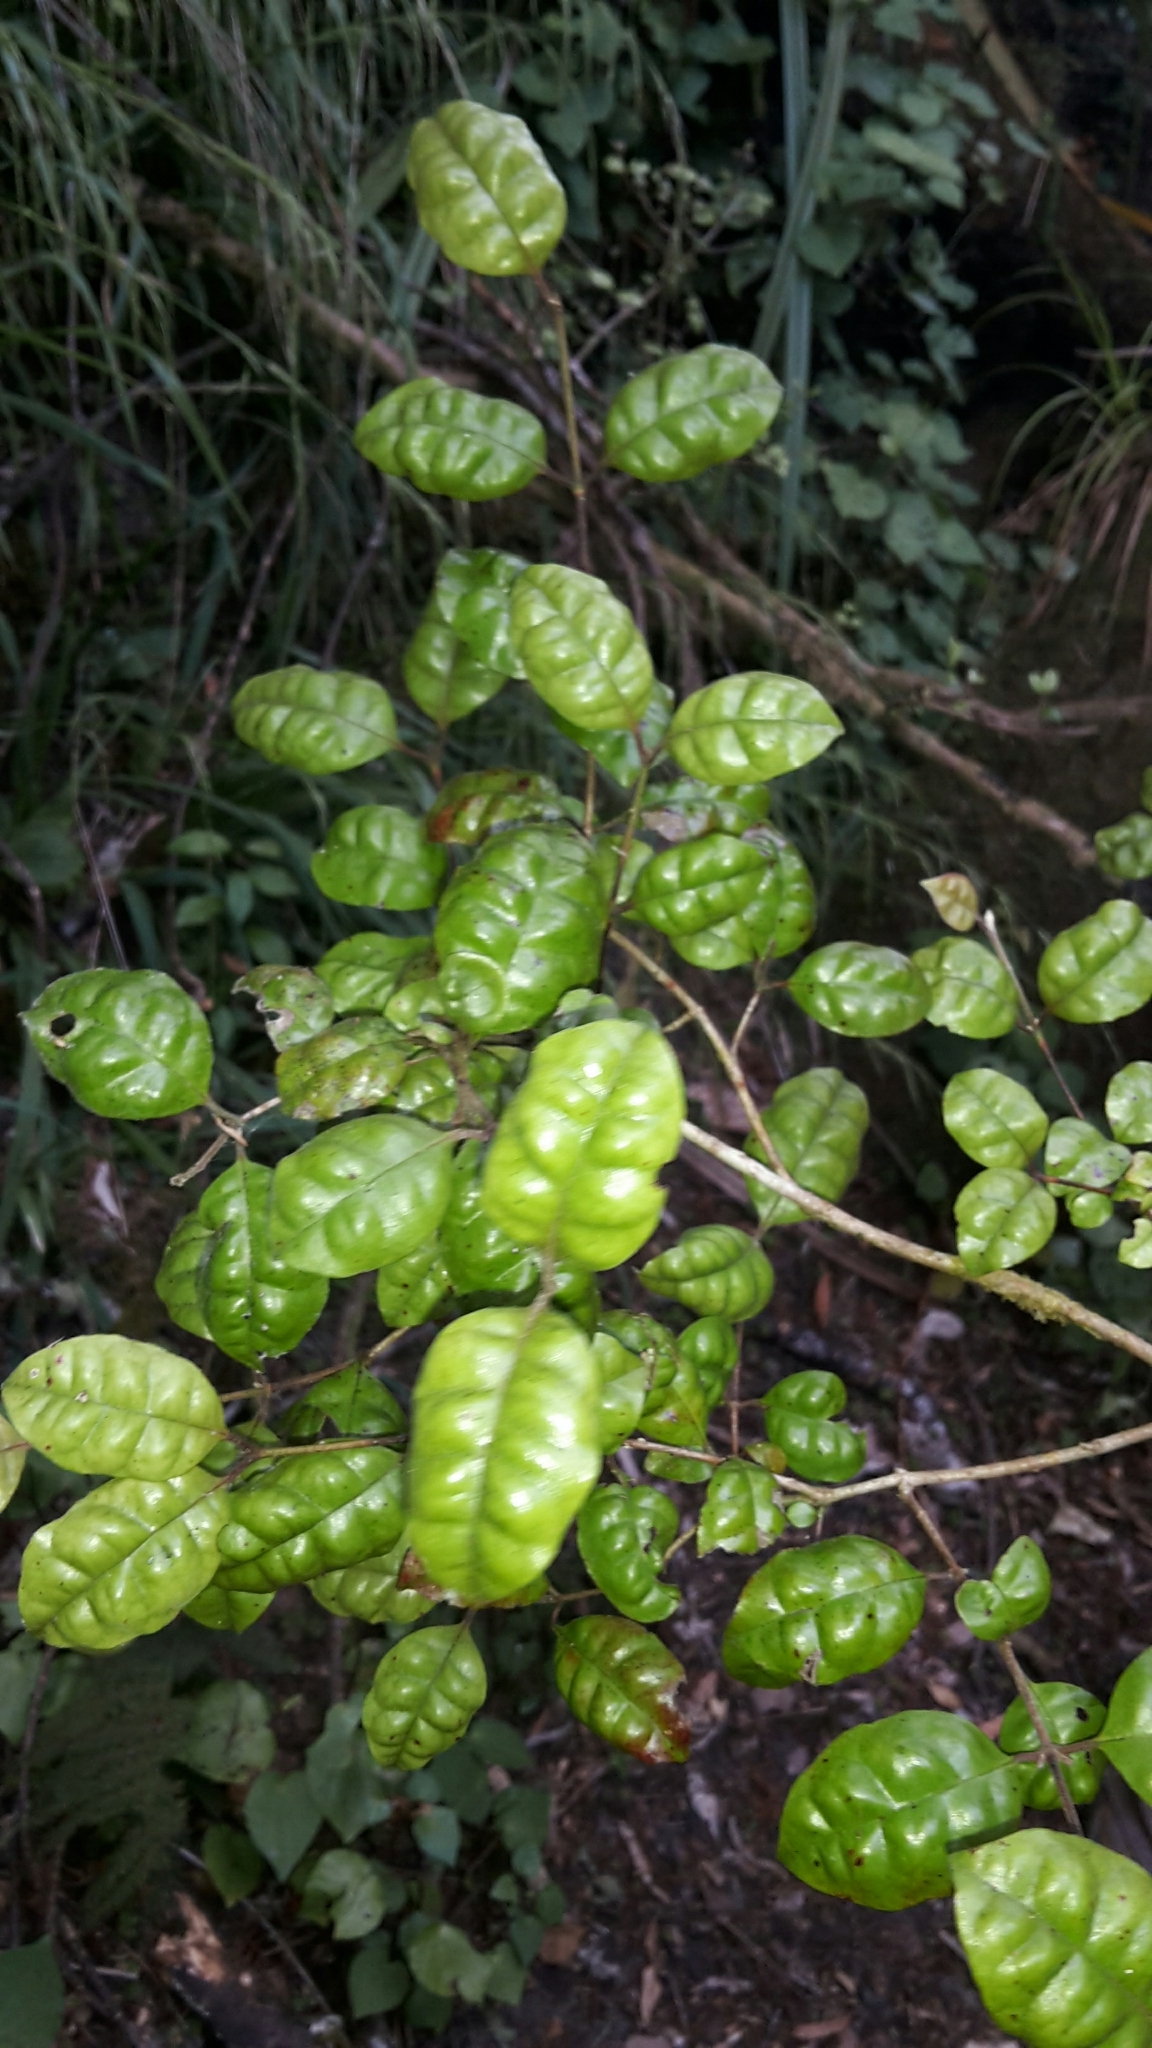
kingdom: Plantae
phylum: Tracheophyta
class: Magnoliopsida
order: Myrtales
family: Myrtaceae
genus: Lophomyrtus
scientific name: Lophomyrtus bullata
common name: Rama rama
